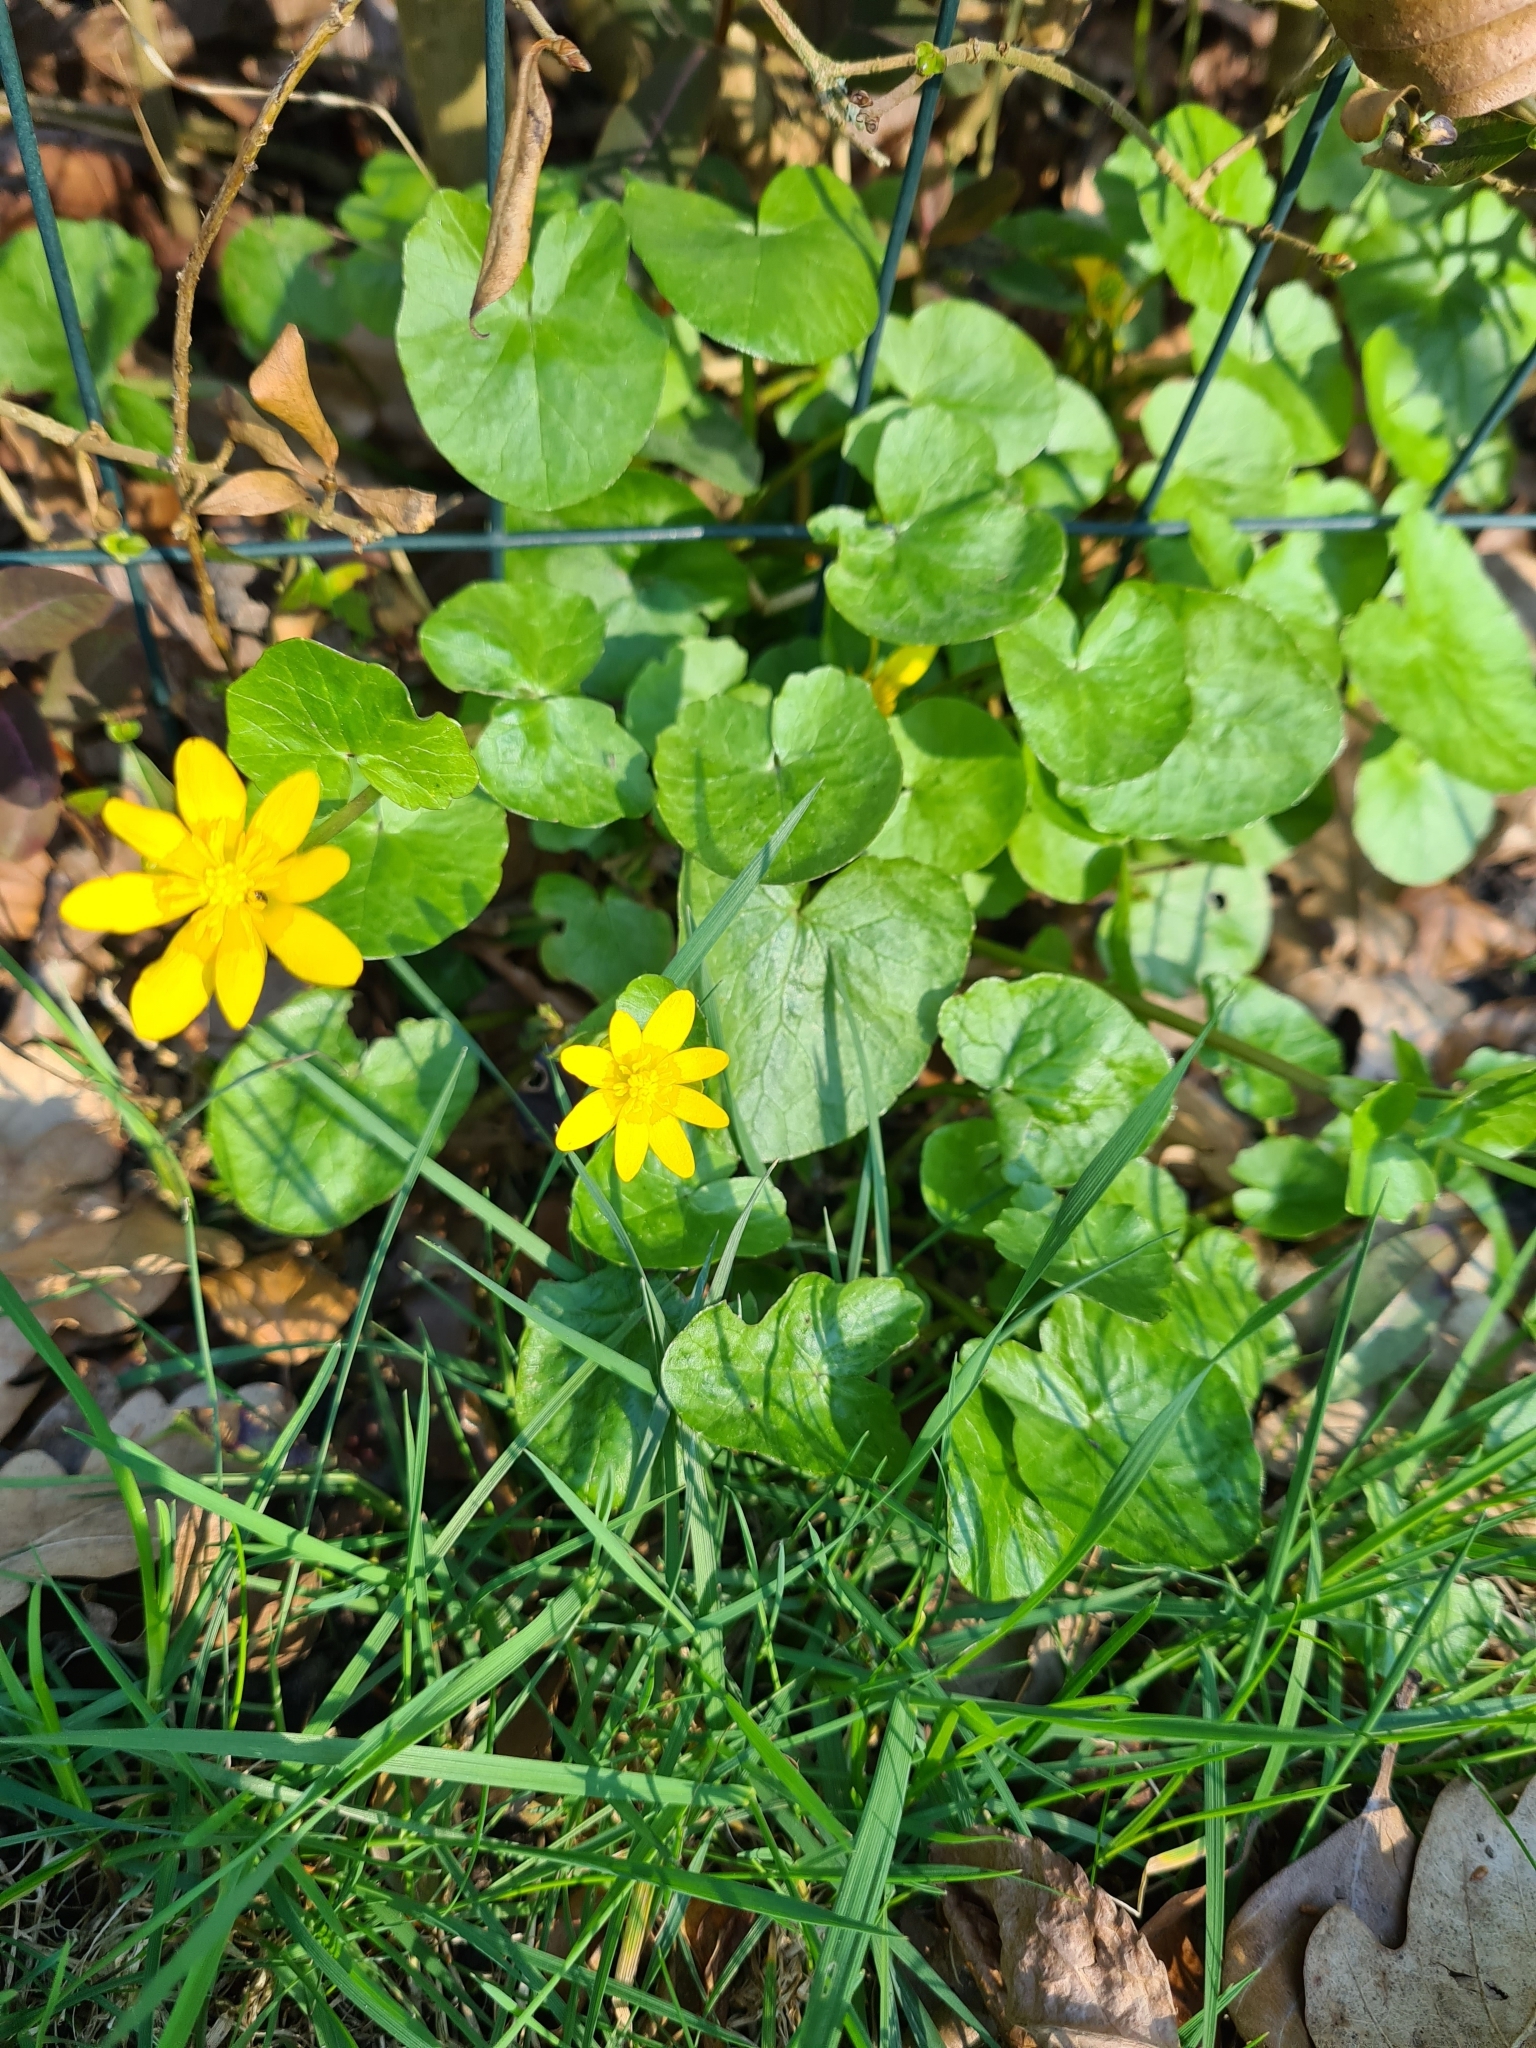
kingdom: Plantae
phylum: Tracheophyta
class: Magnoliopsida
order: Ranunculales
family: Ranunculaceae
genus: Ficaria
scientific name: Ficaria verna
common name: Lesser celandine
